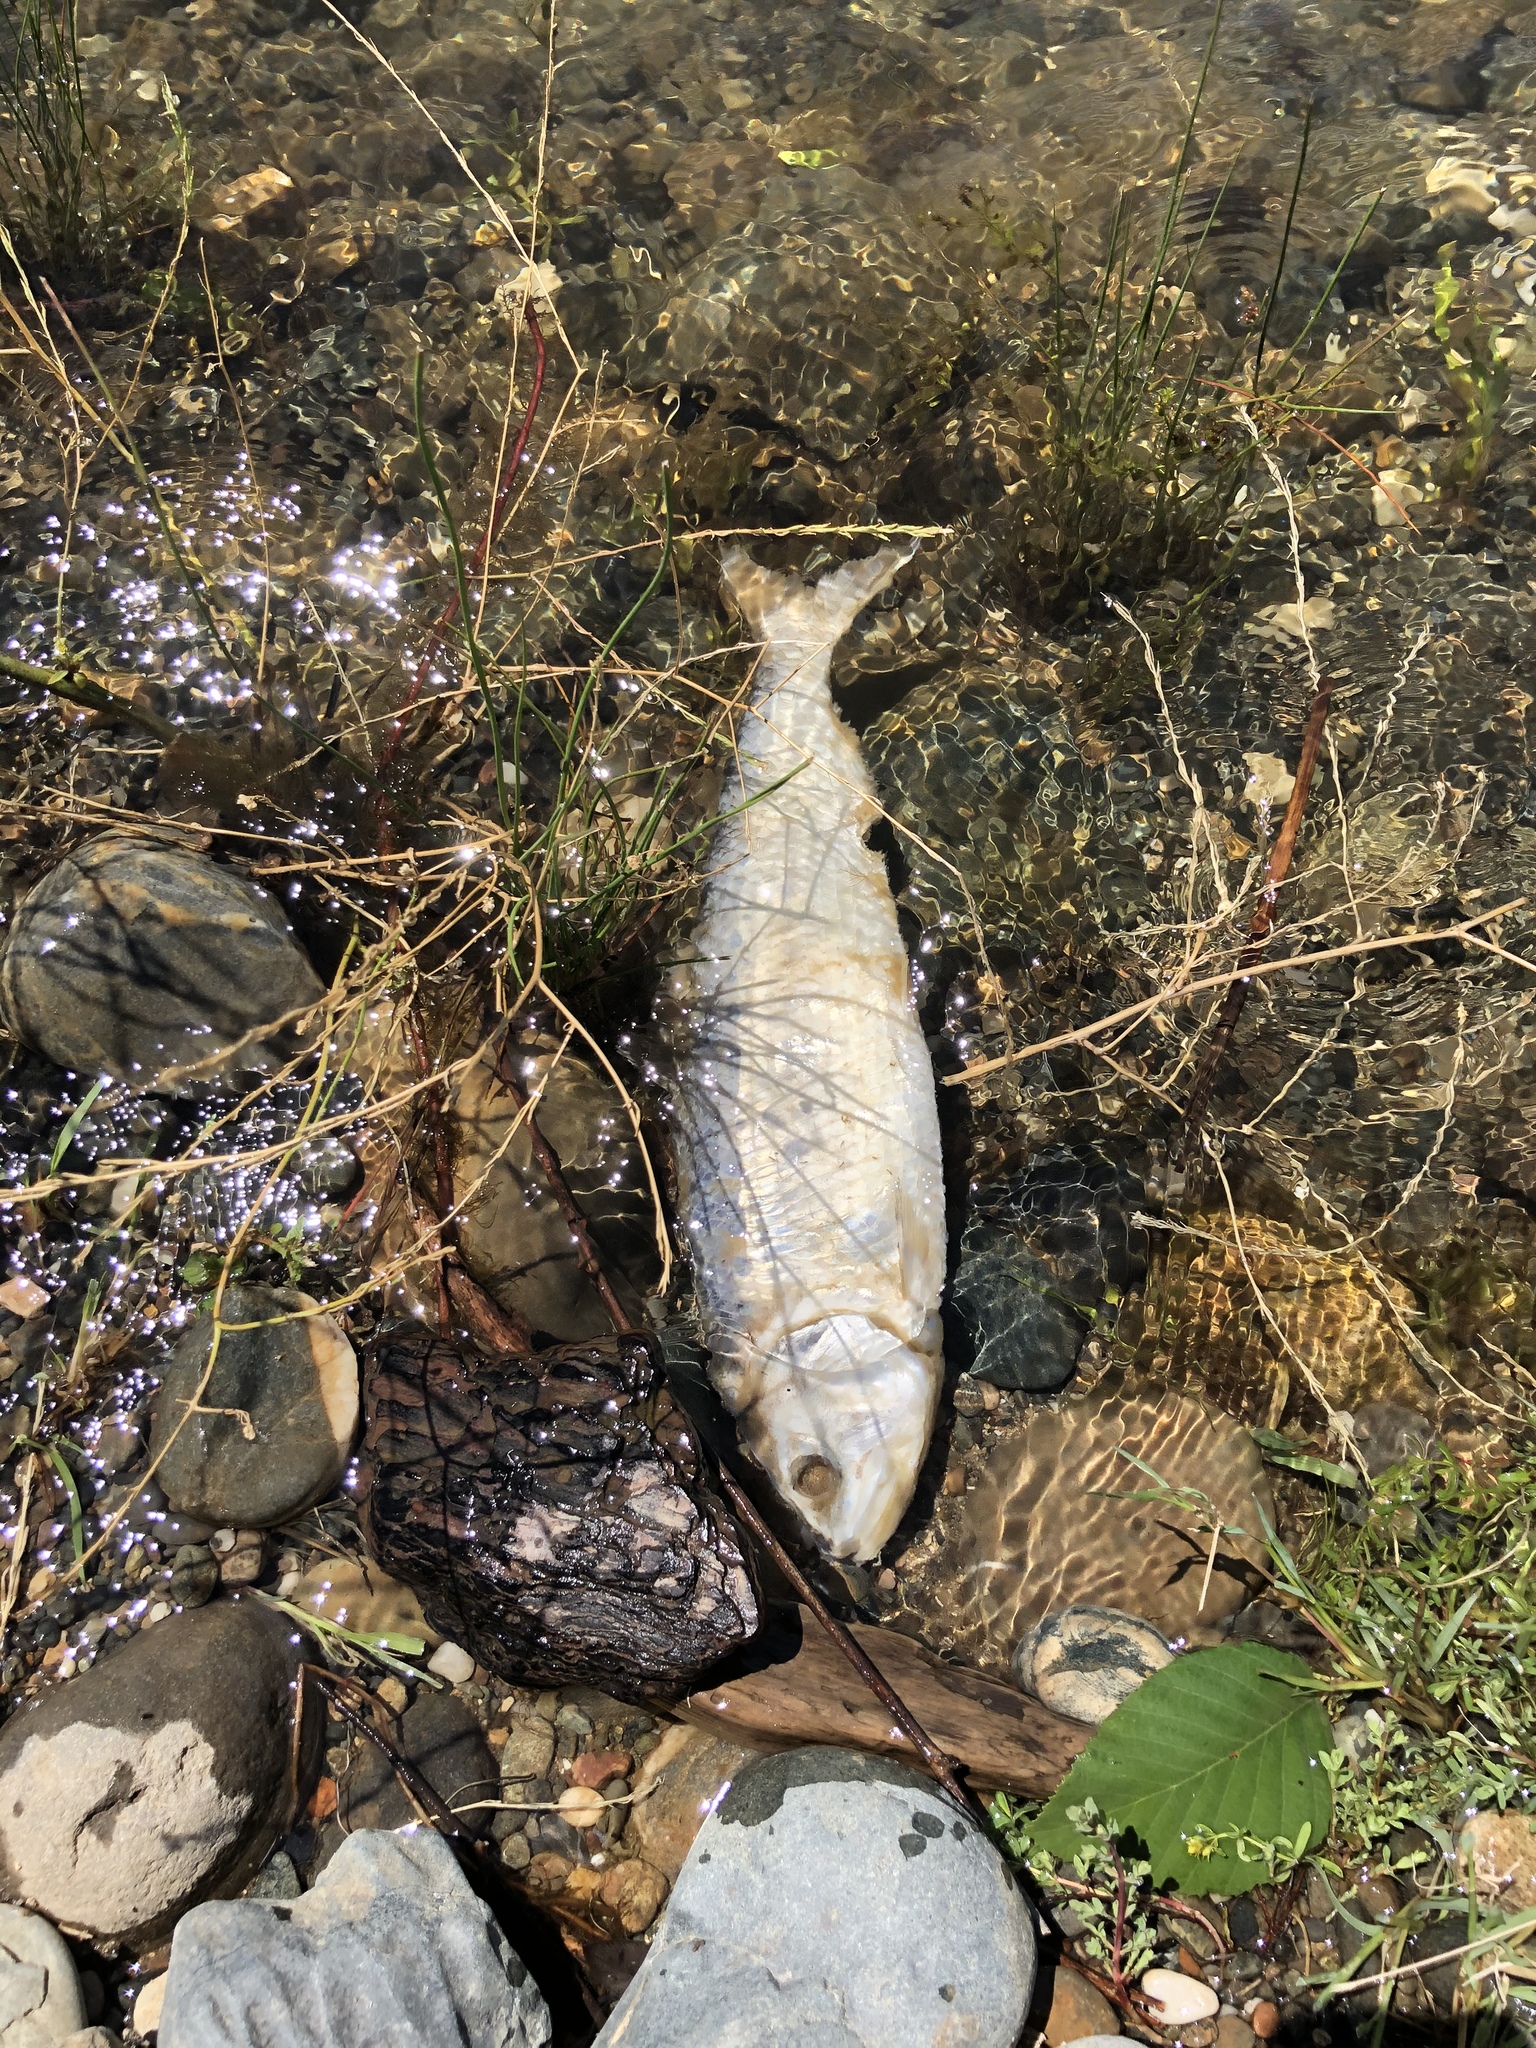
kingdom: Animalia
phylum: Chordata
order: Clupeiformes
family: Clupeidae
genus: Alosa
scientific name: Alosa sapidissima
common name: American shad
